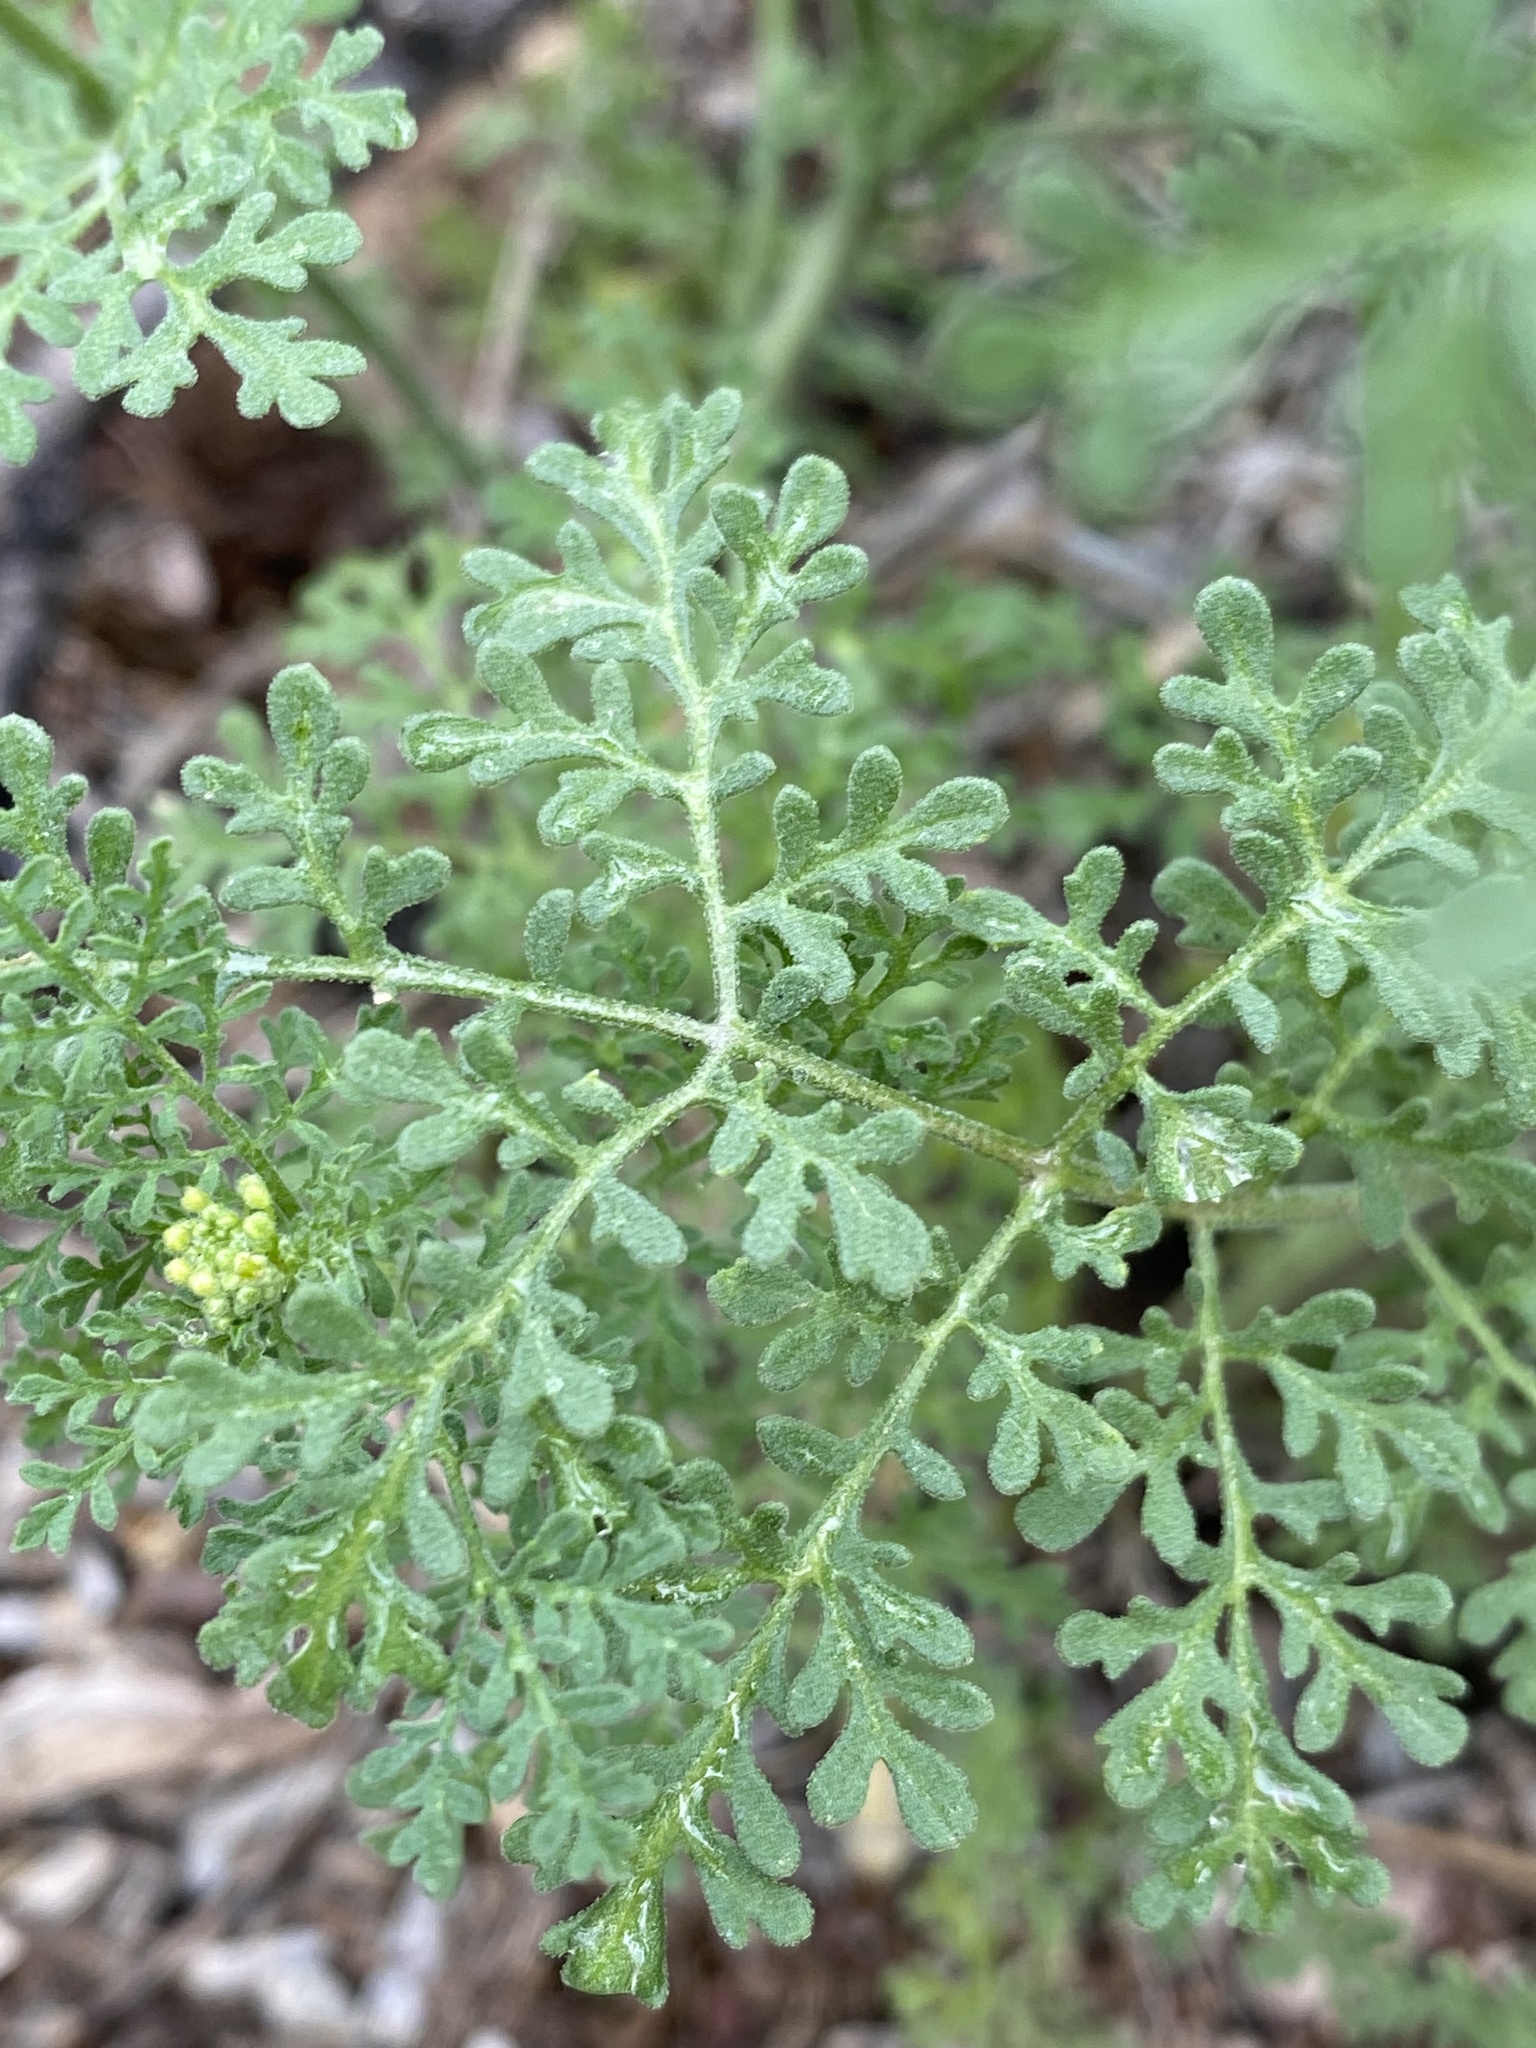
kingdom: Plantae
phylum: Tracheophyta
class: Magnoliopsida
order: Brassicales
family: Brassicaceae
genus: Descurainia
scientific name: Descurainia pinnata
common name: Western tansy mustard
